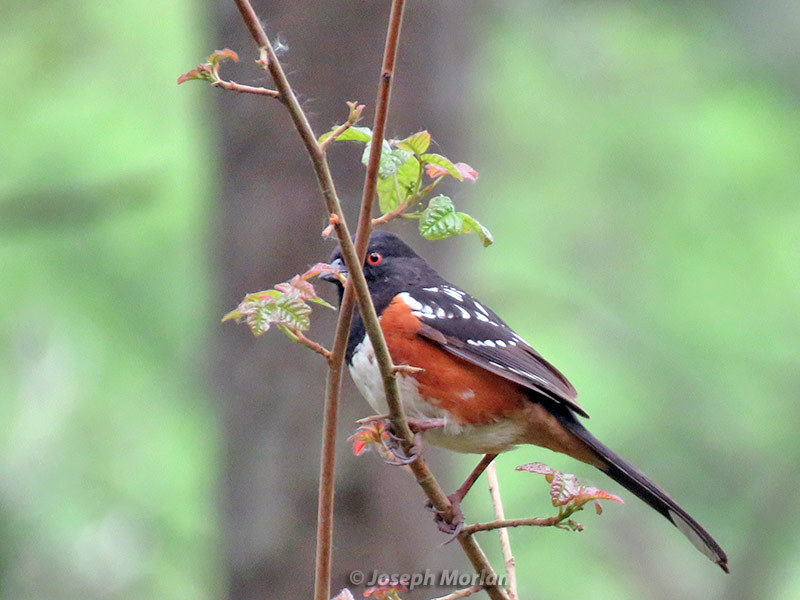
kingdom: Animalia
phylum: Chordata
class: Aves
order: Passeriformes
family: Passerellidae
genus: Pipilo
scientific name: Pipilo maculatus
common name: Spotted towhee
